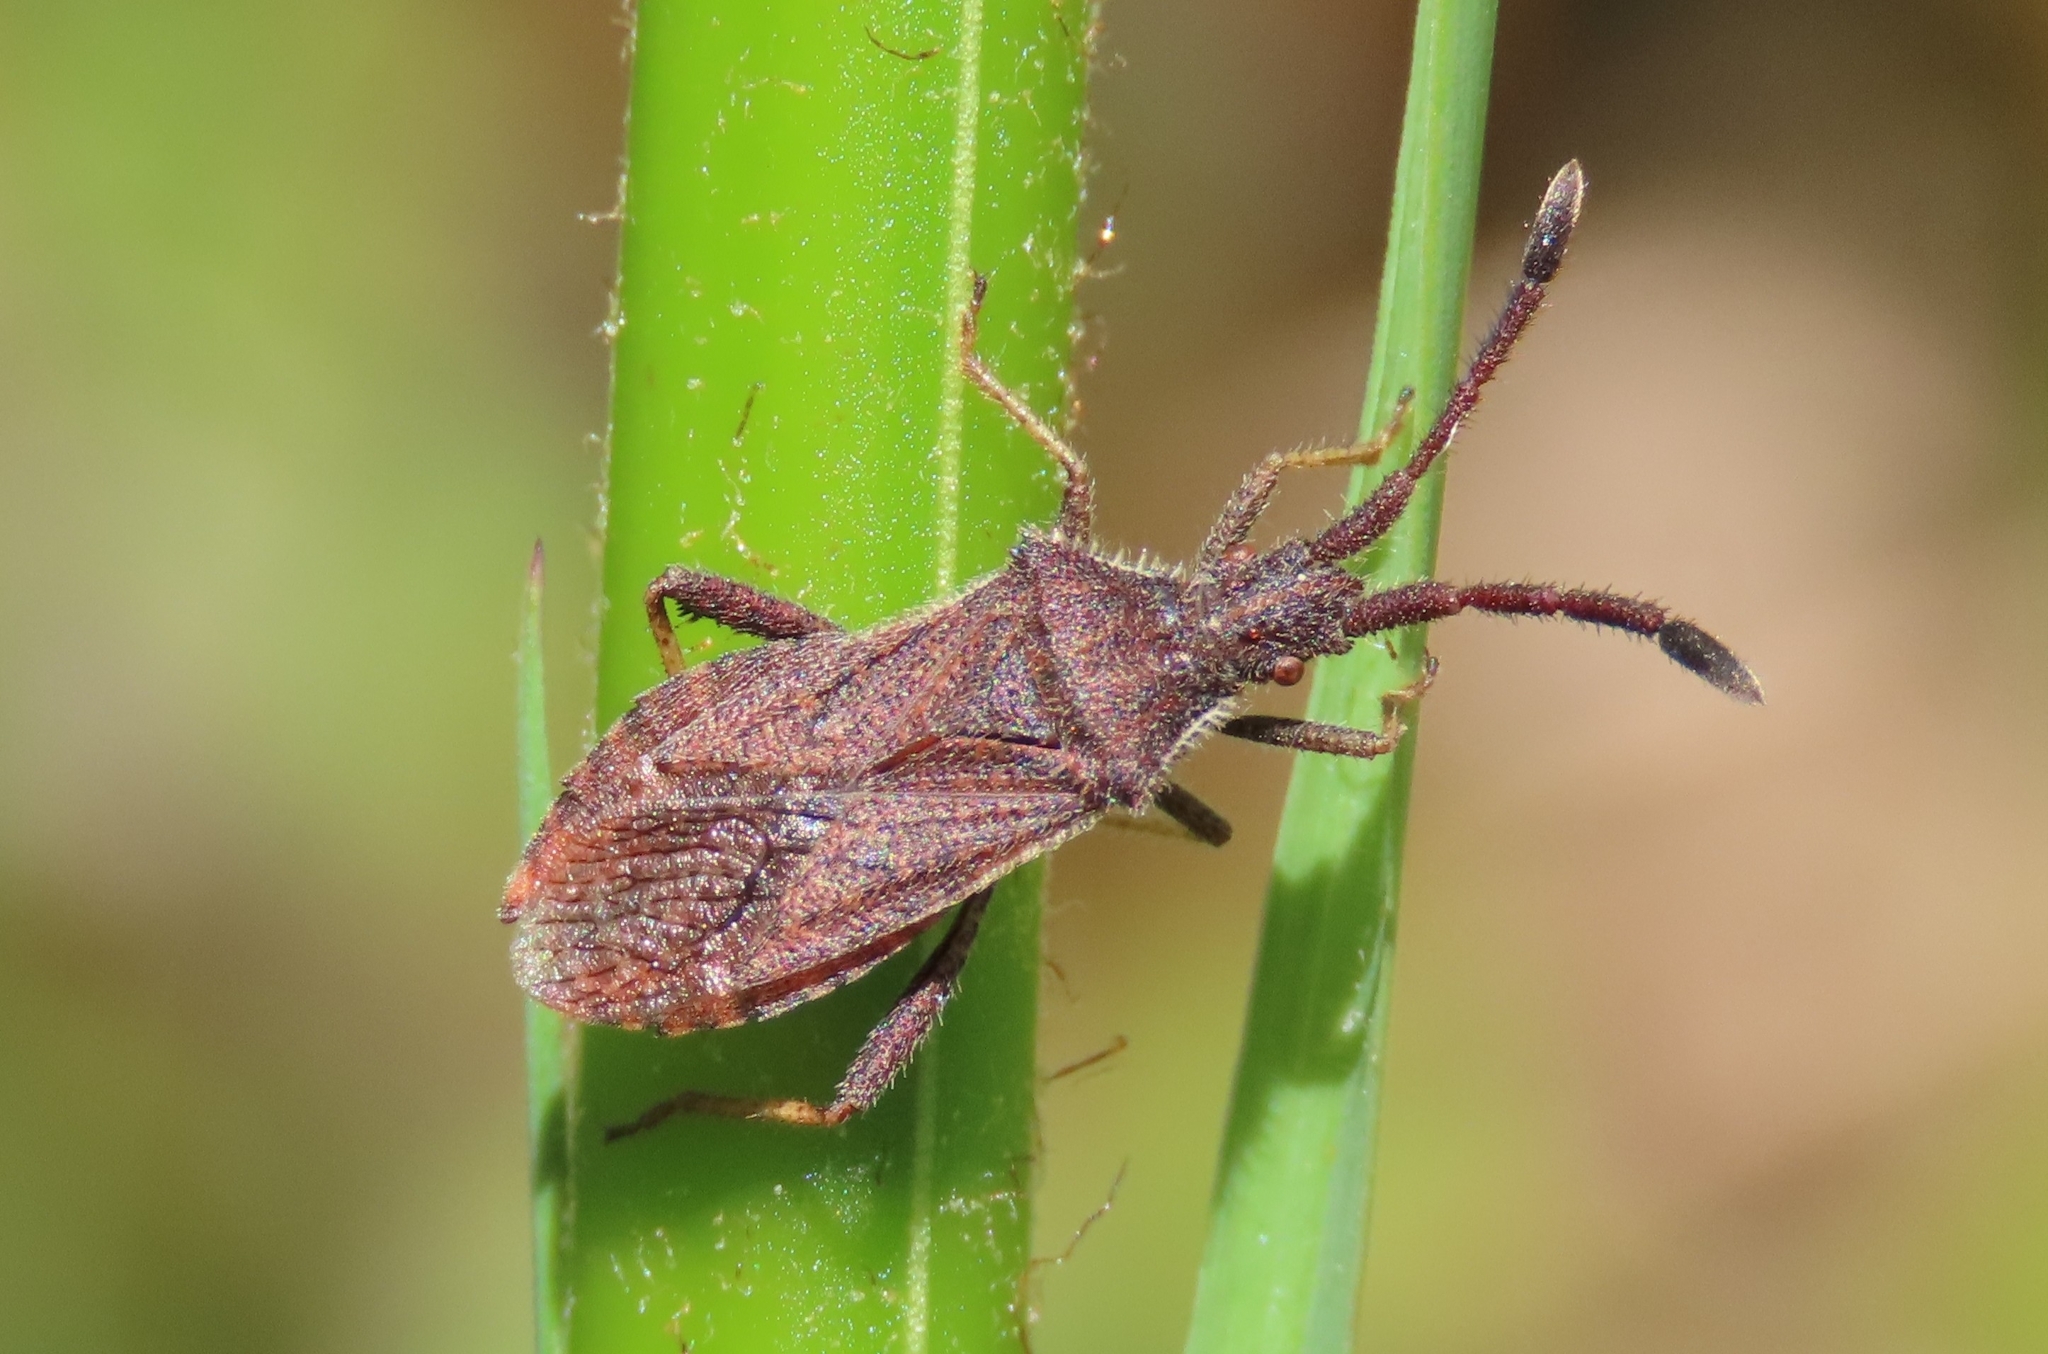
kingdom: Animalia
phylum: Arthropoda
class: Insecta
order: Hemiptera
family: Coreidae
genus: Coriomeris
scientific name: Coriomeris denticulatus
